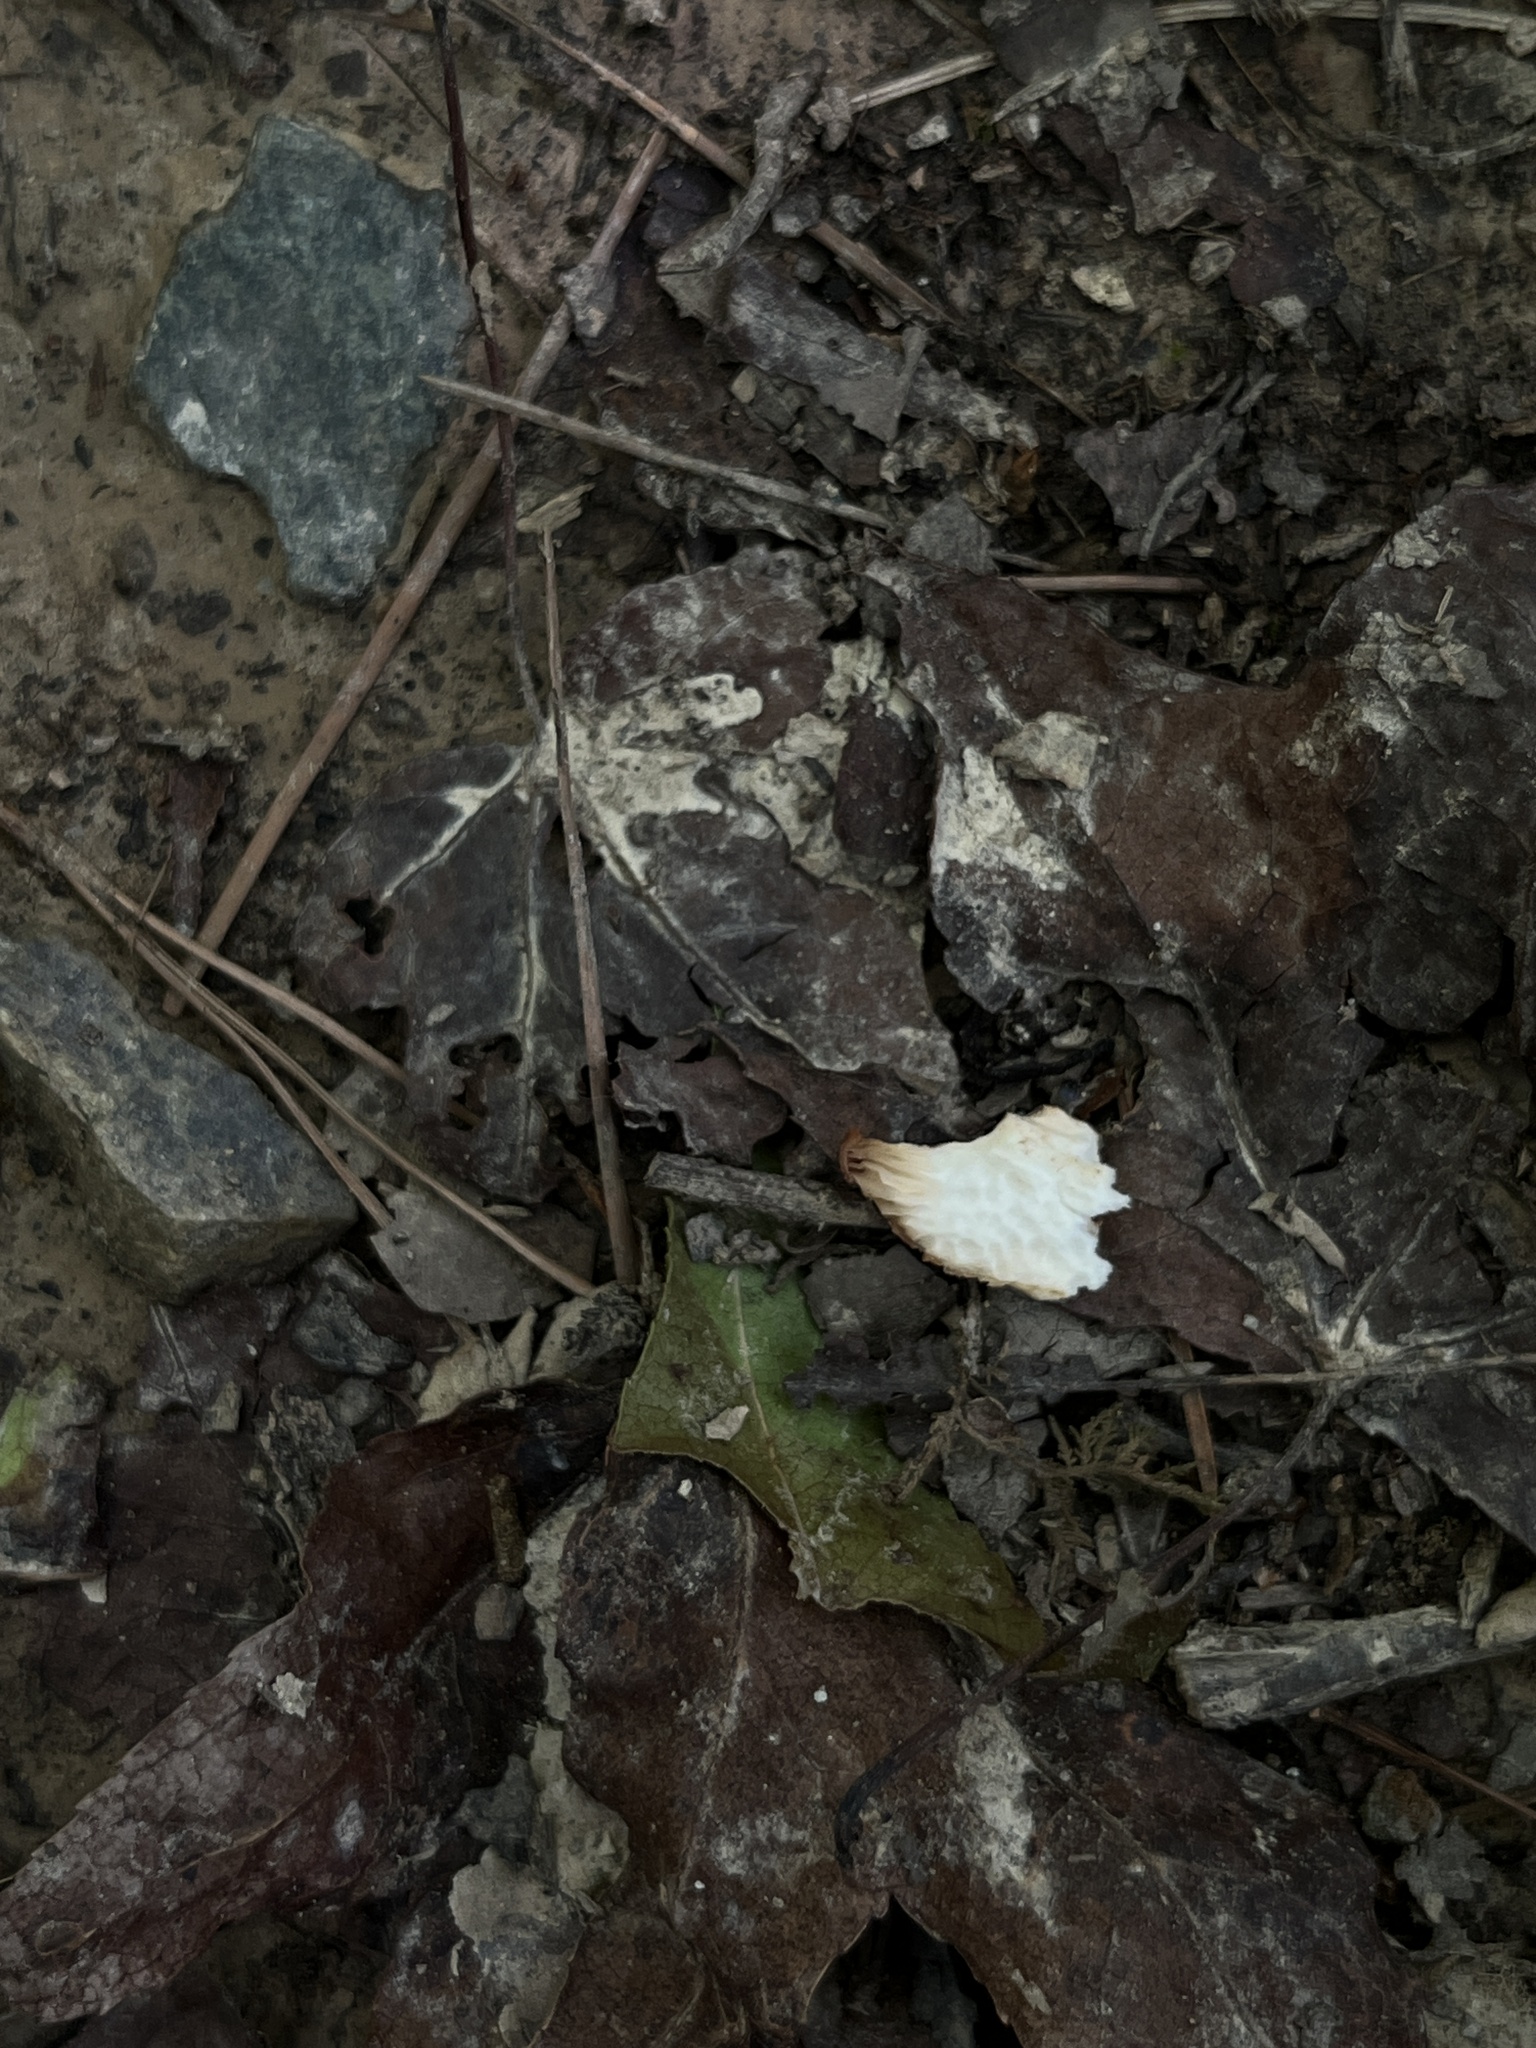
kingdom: Fungi
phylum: Basidiomycota
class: Agaricomycetes
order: Agaricales
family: Physalacriaceae
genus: Desarmillaria
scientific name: Desarmillaria caespitosa
